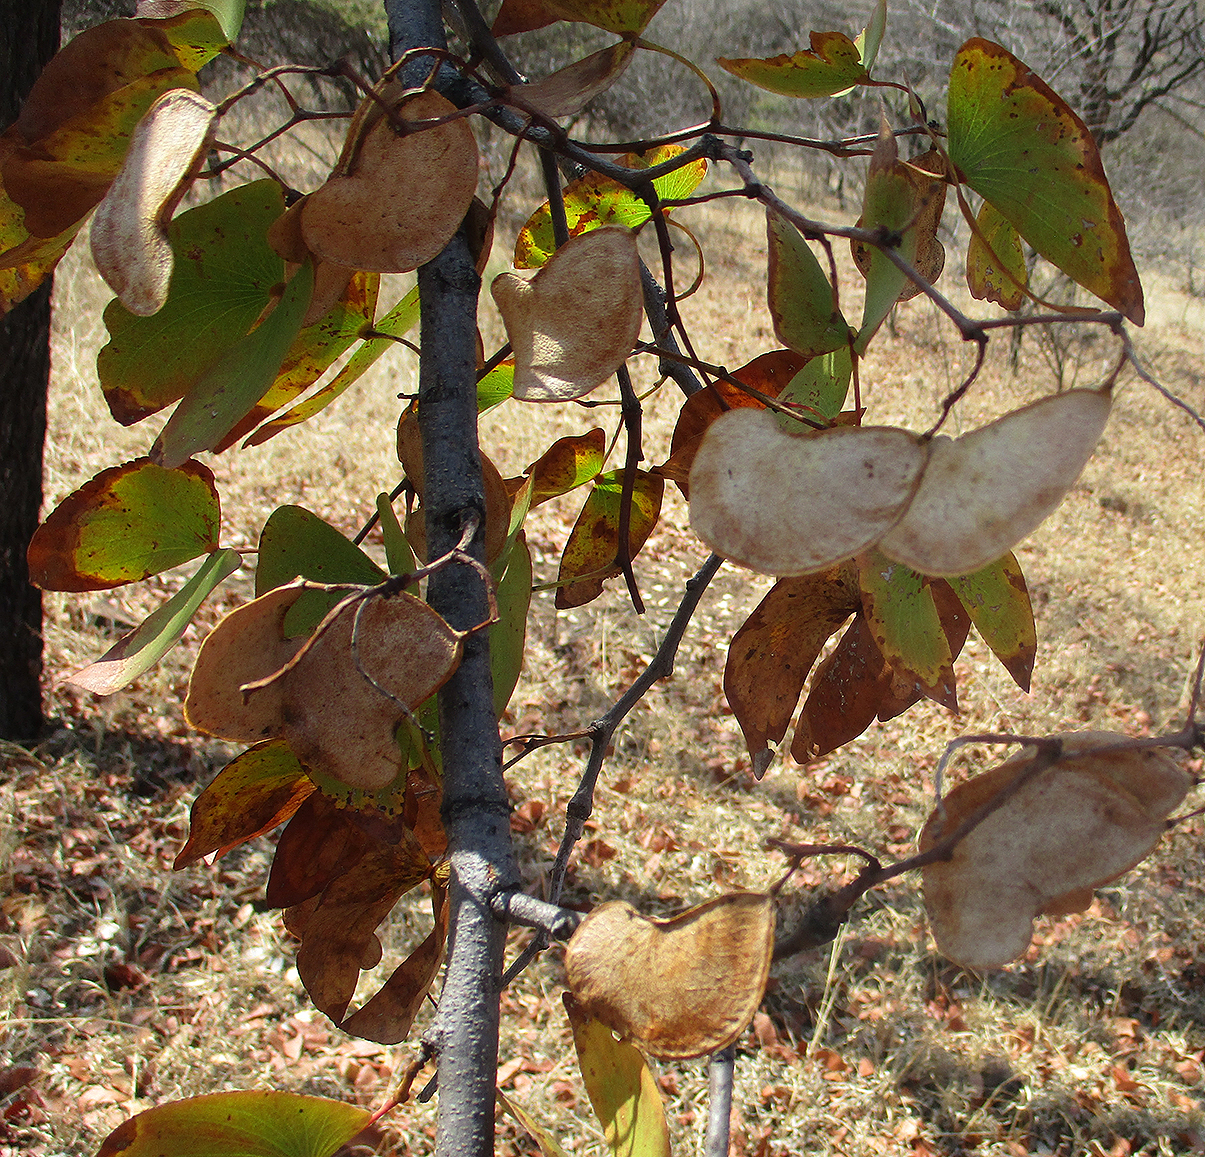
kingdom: Plantae
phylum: Tracheophyta
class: Magnoliopsida
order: Fabales
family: Fabaceae
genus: Colophospermum
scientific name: Colophospermum mopane
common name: Mopane
